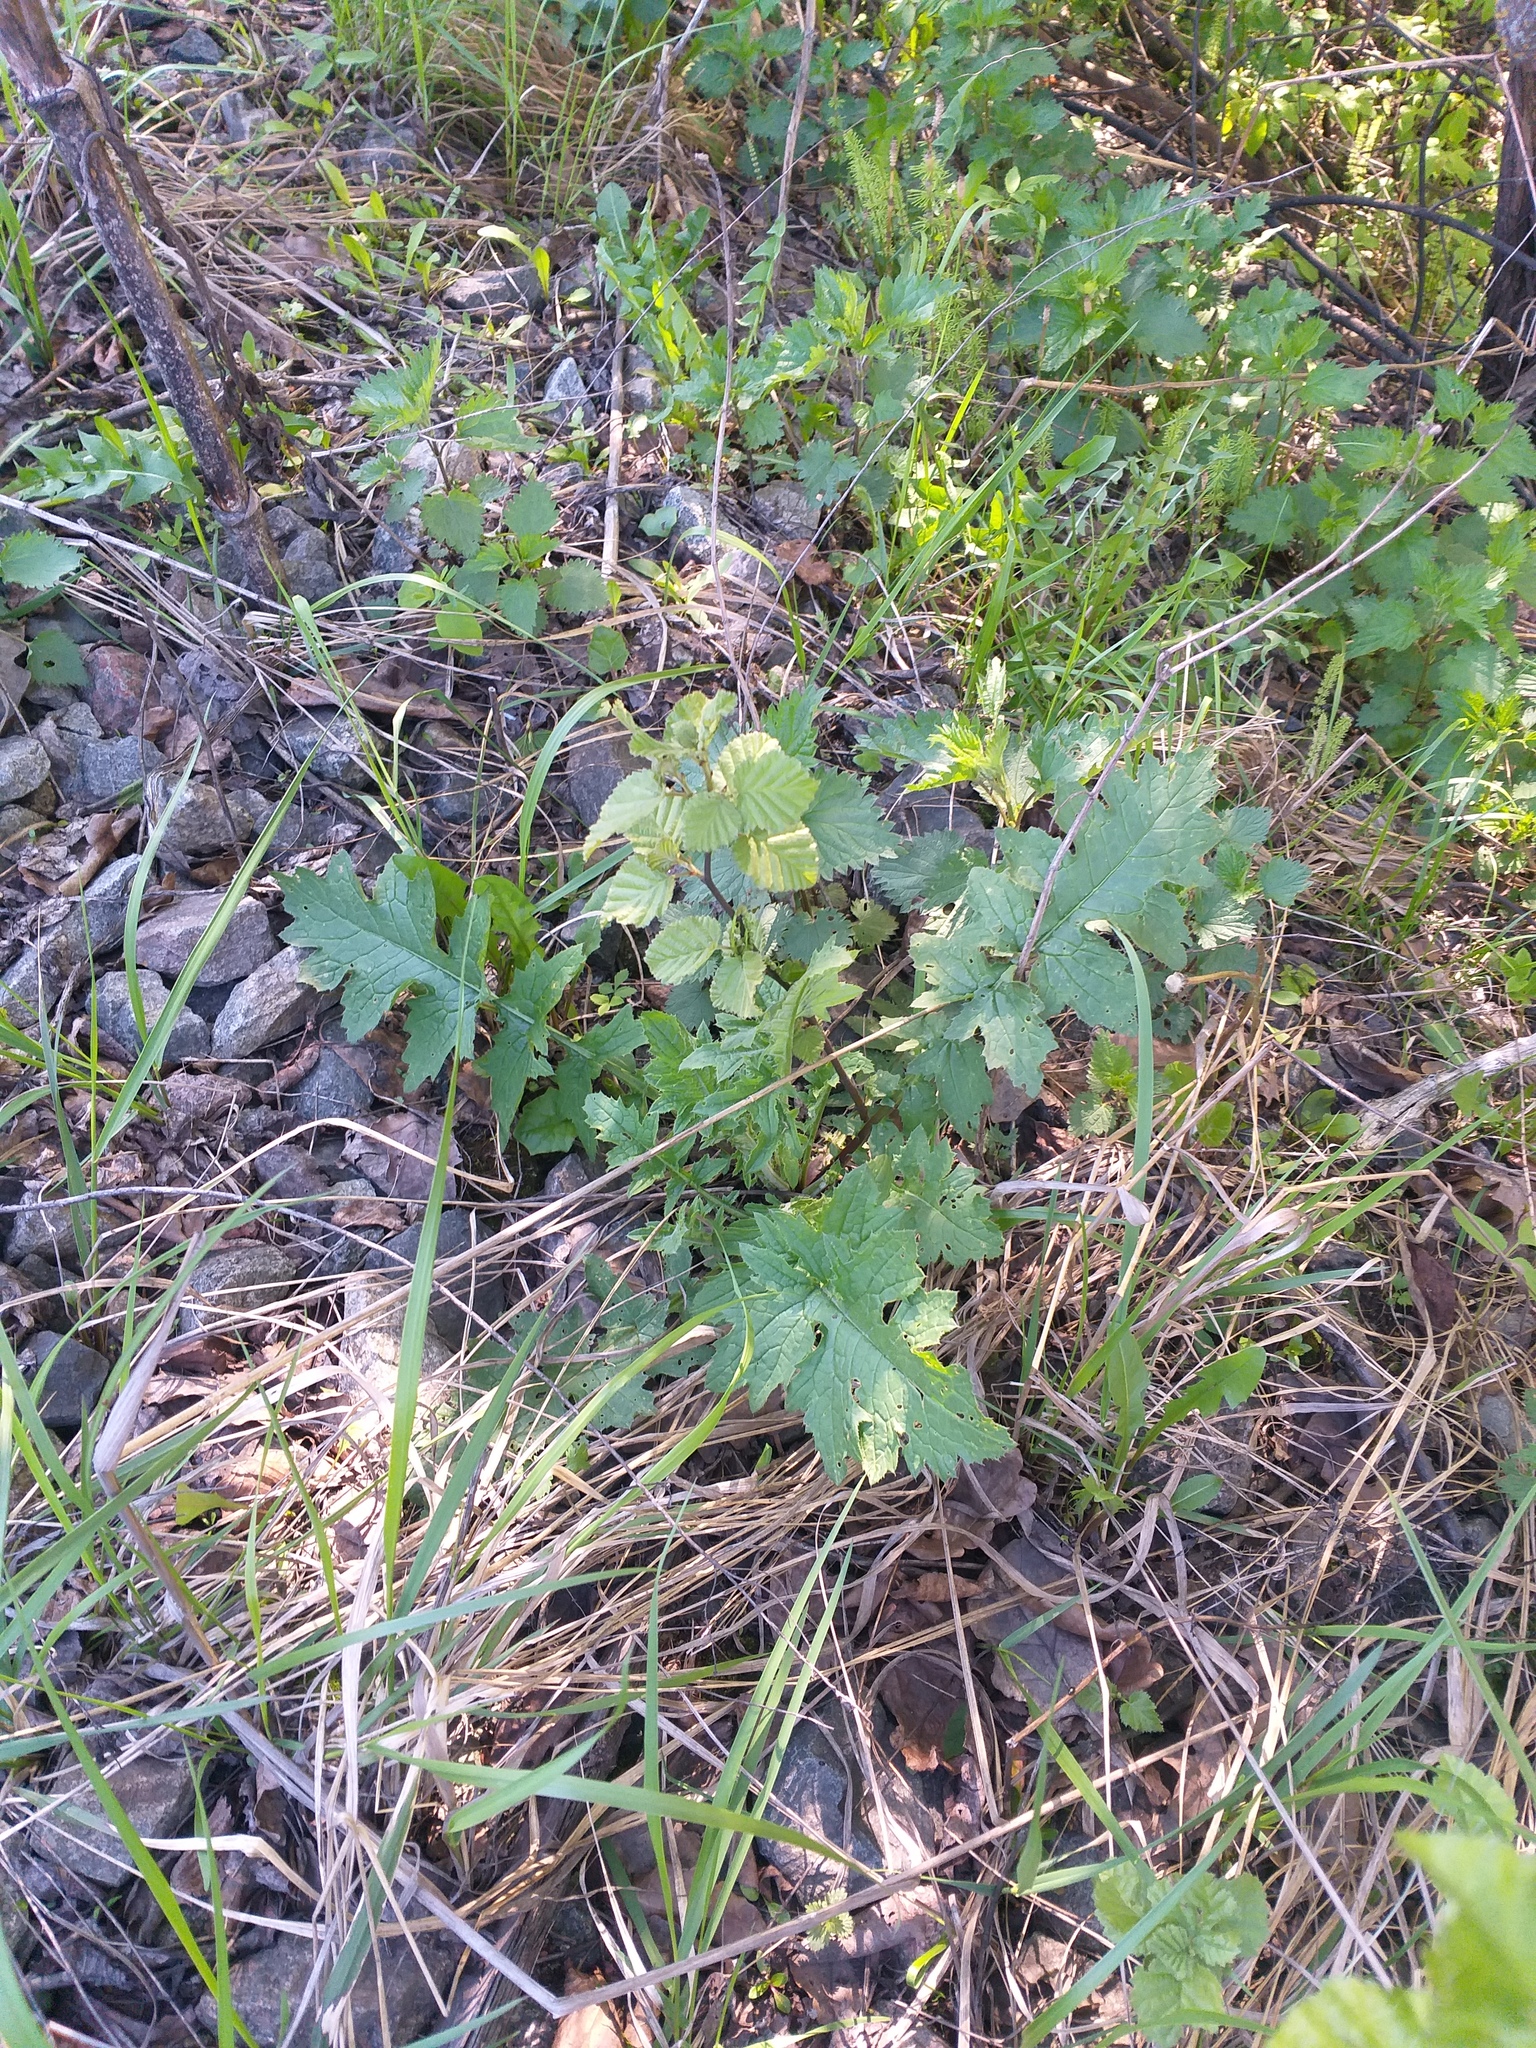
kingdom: Plantae
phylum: Tracheophyta
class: Magnoliopsida
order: Asterales
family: Asteraceae
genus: Carduus
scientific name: Carduus crispus
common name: Welted thistle
